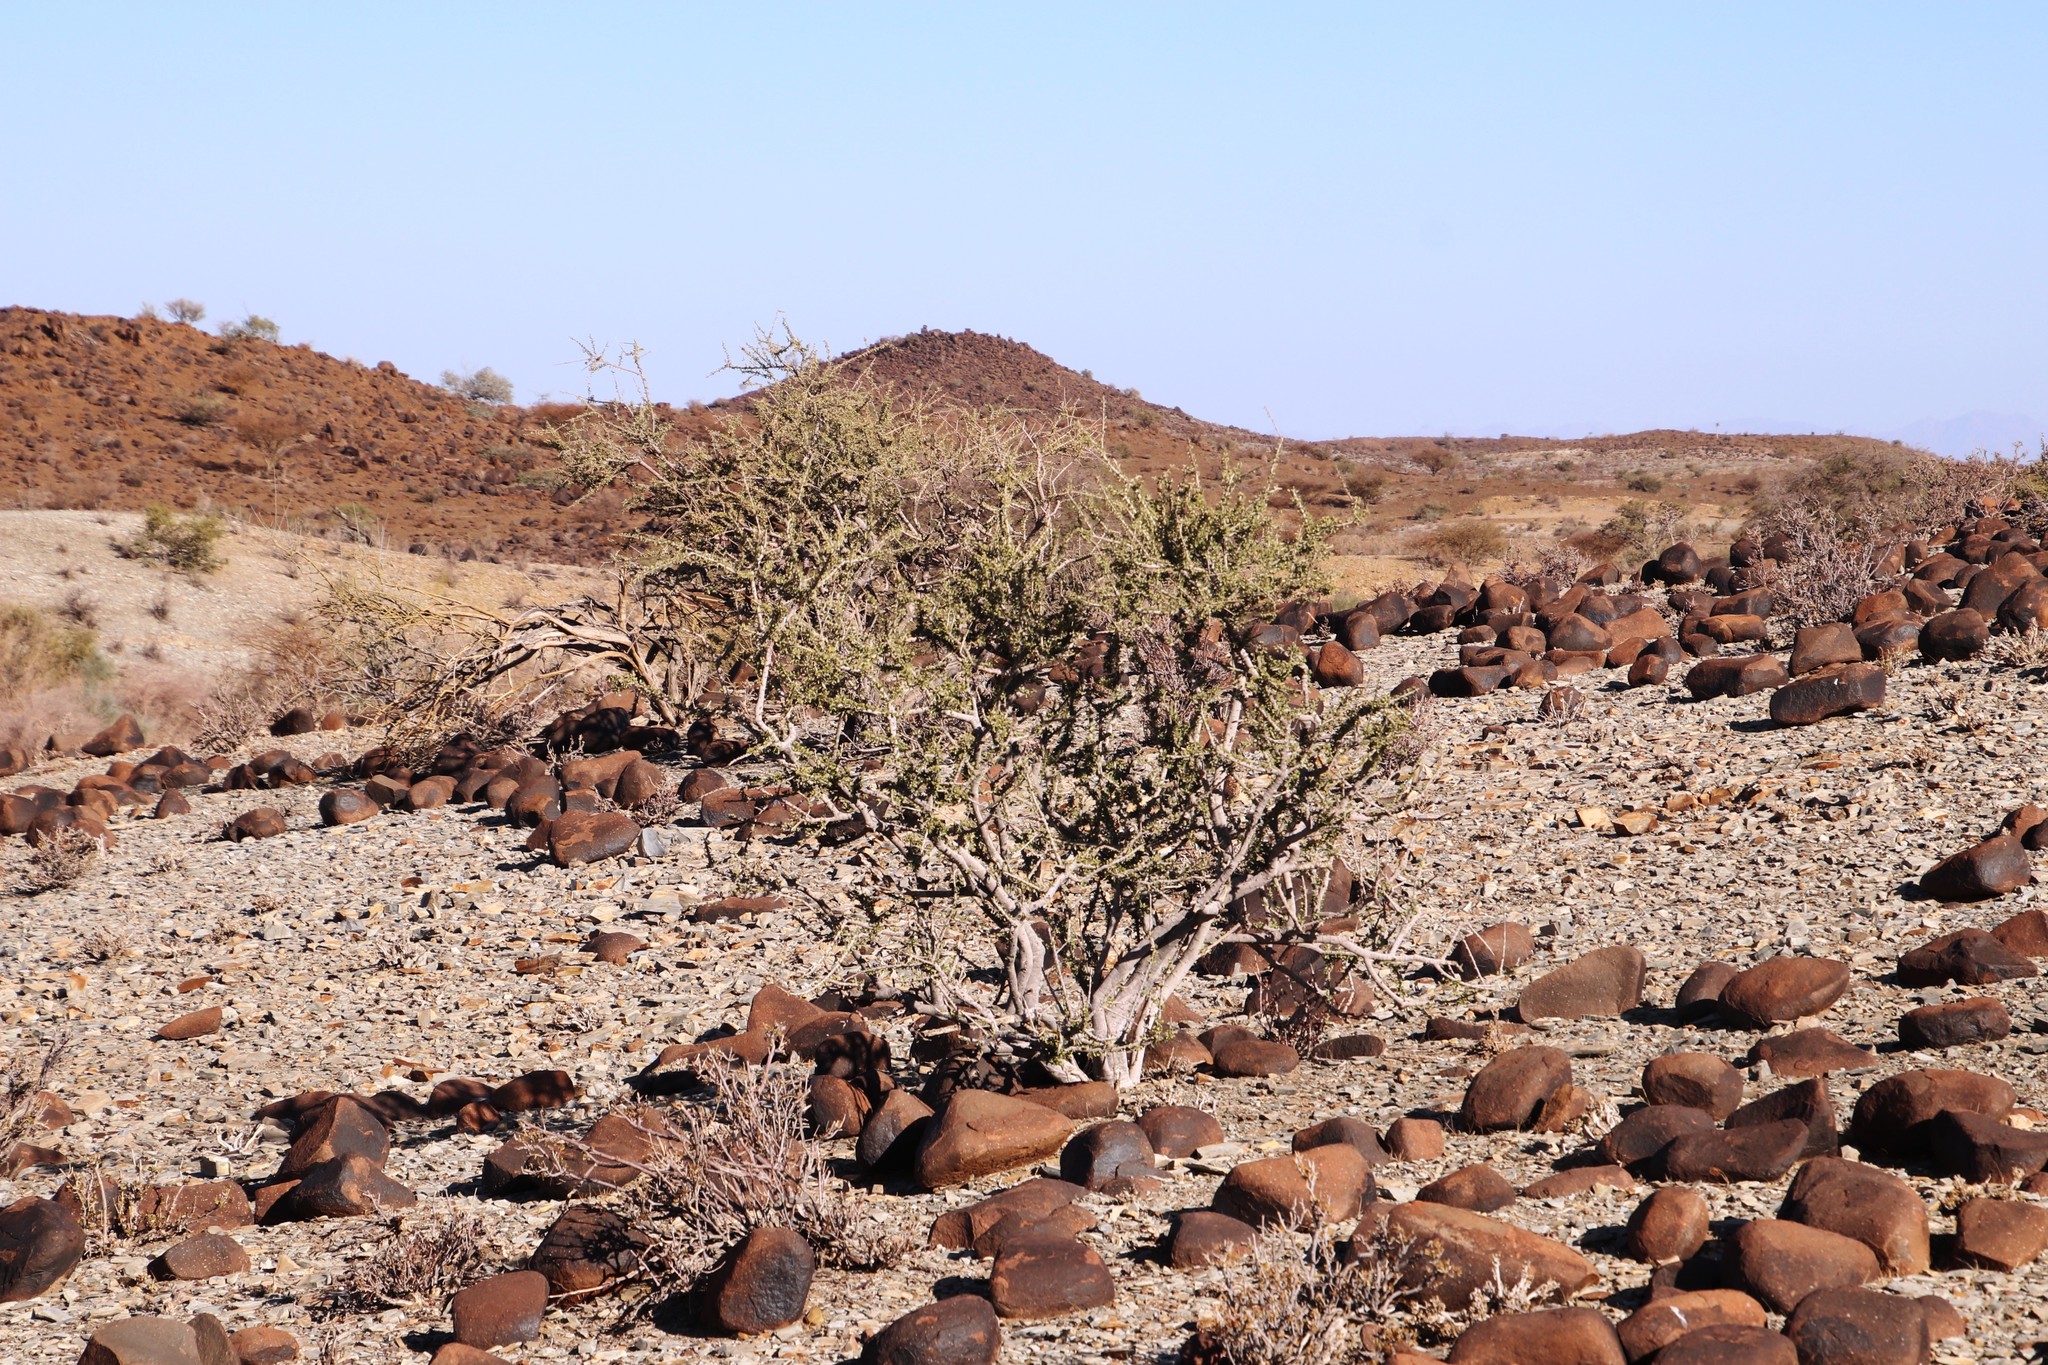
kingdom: Plantae
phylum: Tracheophyta
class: Magnoliopsida
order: Brassicales
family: Capparaceae
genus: Boscia
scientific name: Boscia foetida
